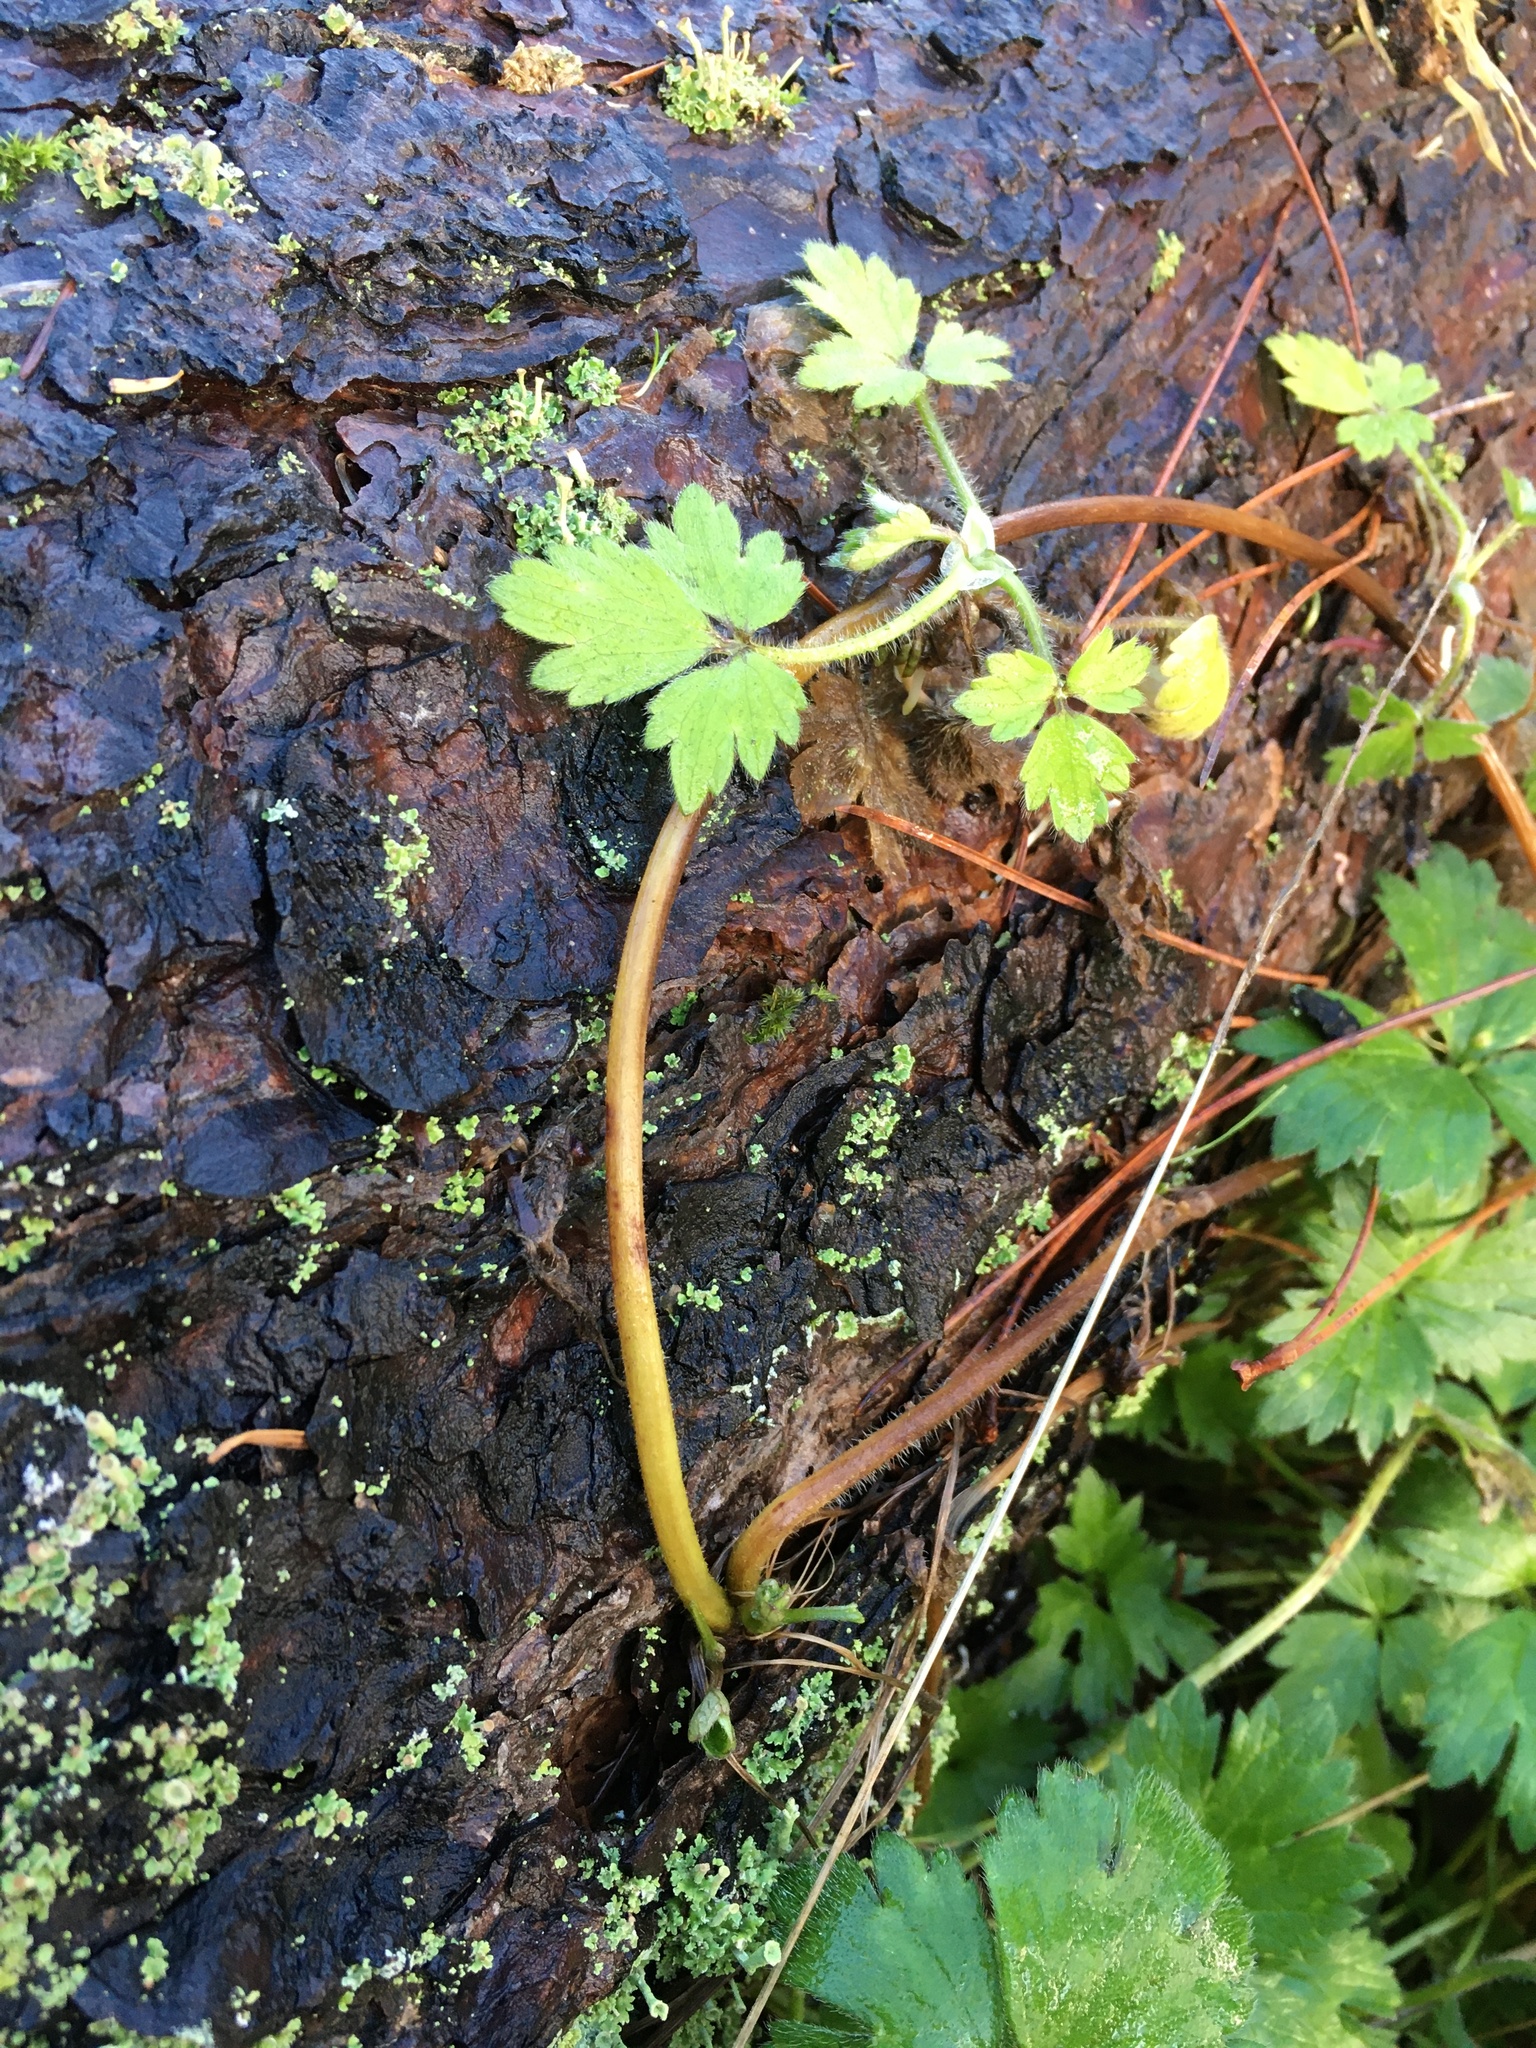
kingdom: Plantae
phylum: Tracheophyta
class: Magnoliopsida
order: Ranunculales
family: Ranunculaceae
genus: Ranunculus
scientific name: Ranunculus repens
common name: Creeping buttercup
